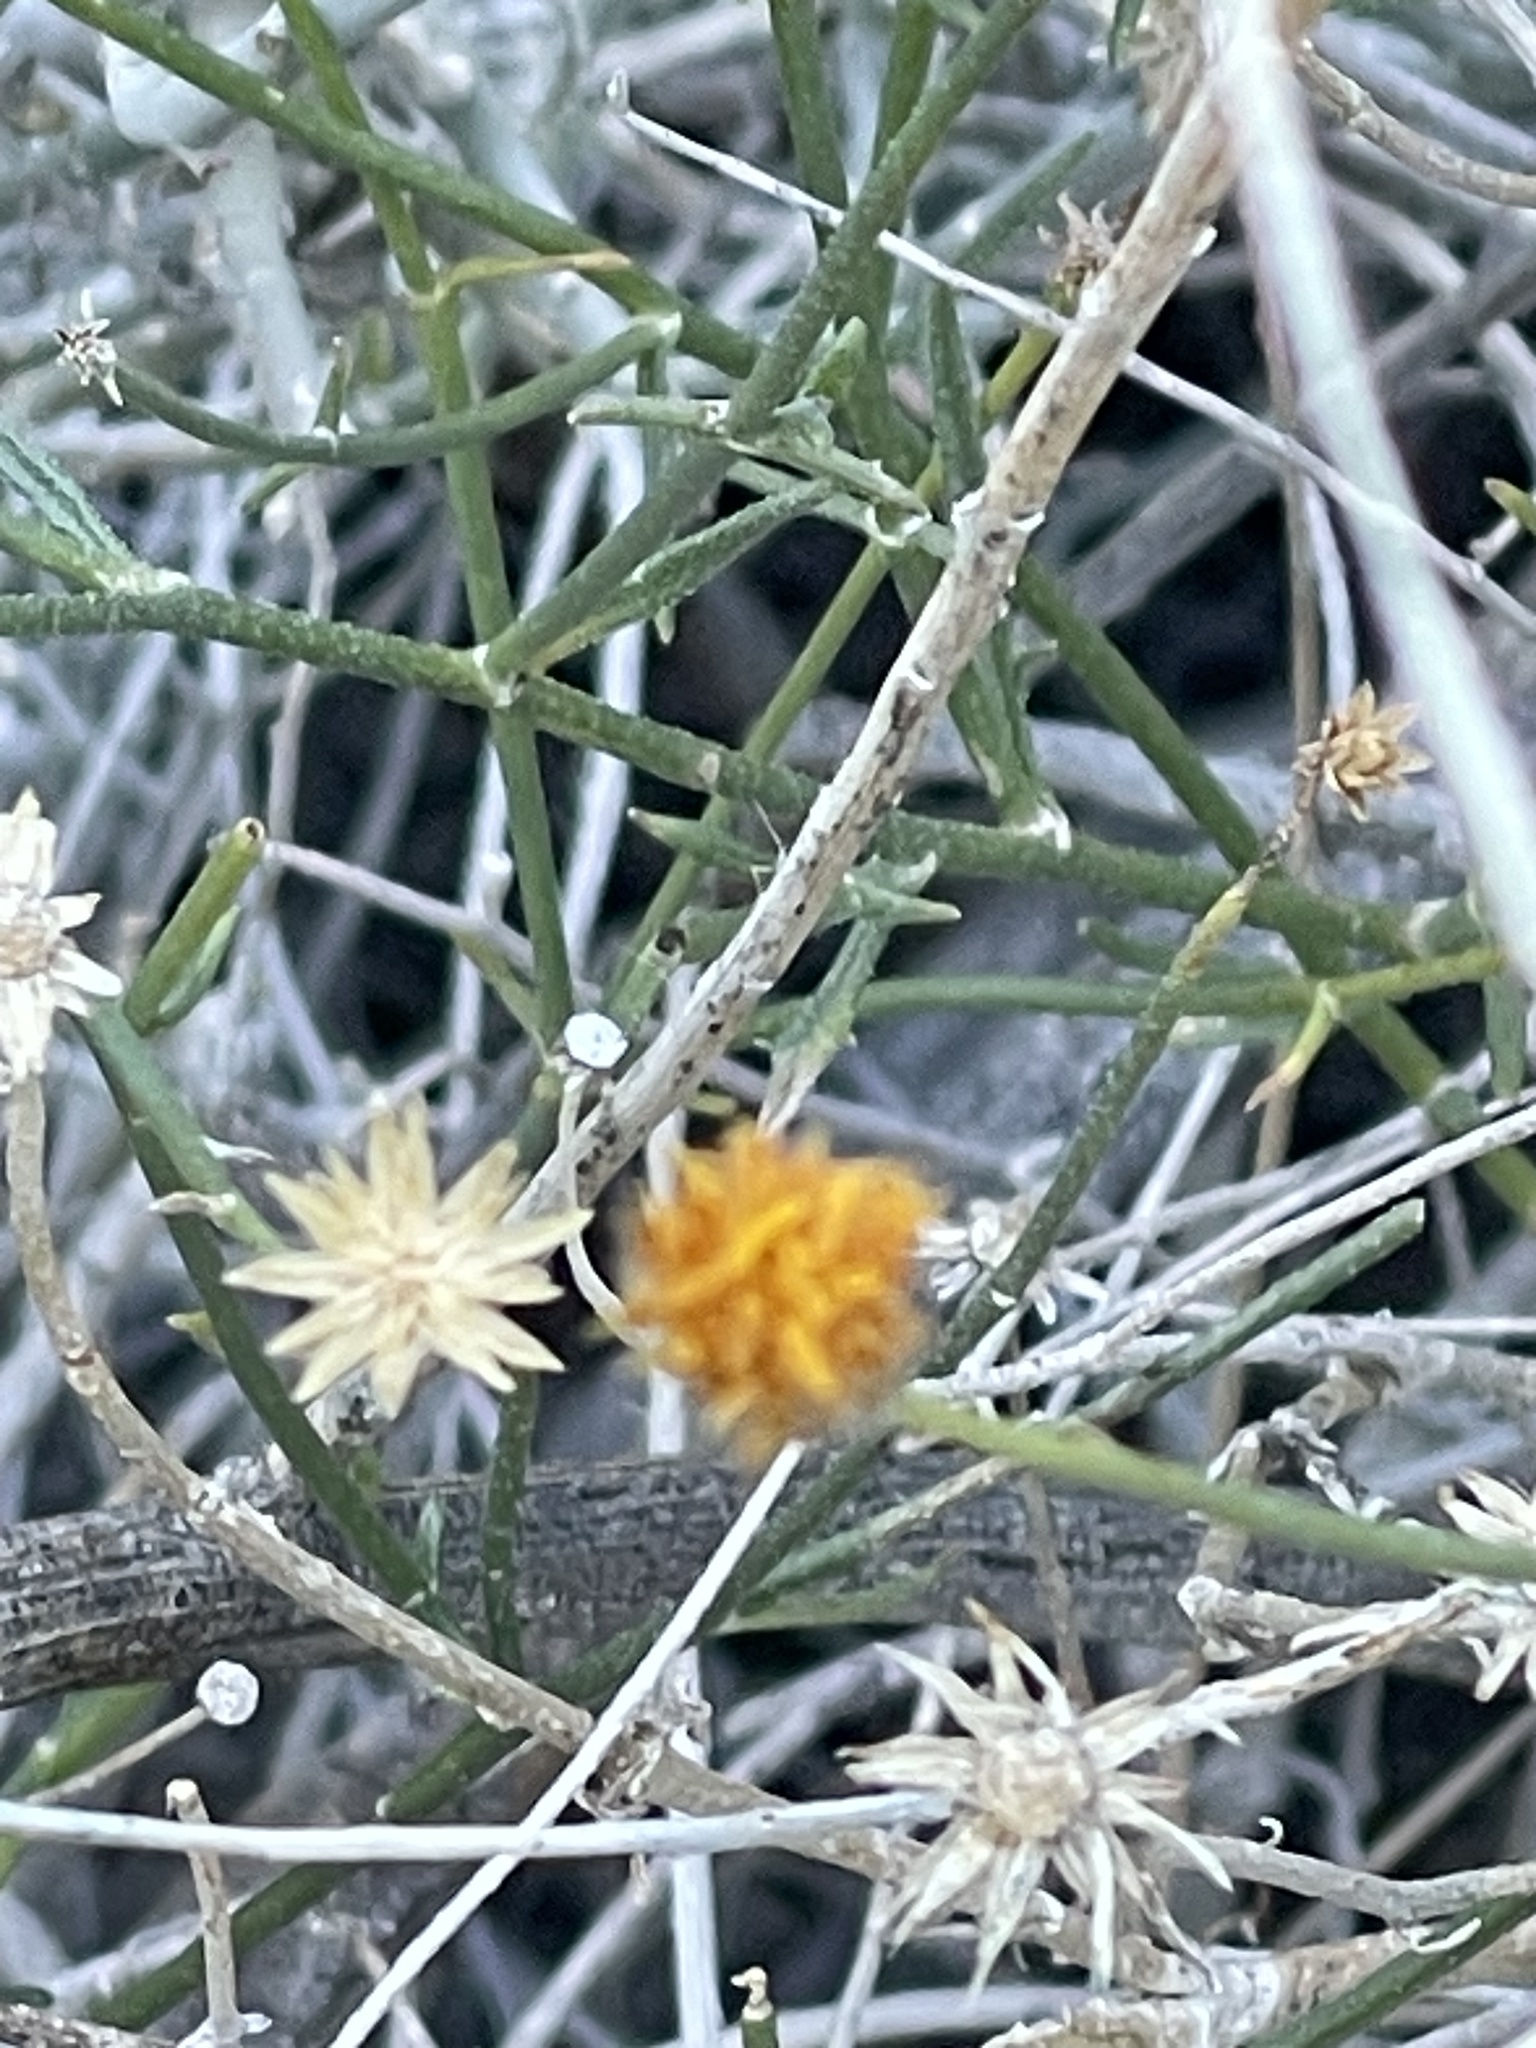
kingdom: Plantae
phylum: Tracheophyta
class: Magnoliopsida
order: Asterales
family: Asteraceae
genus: Bebbia
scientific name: Bebbia juncea
